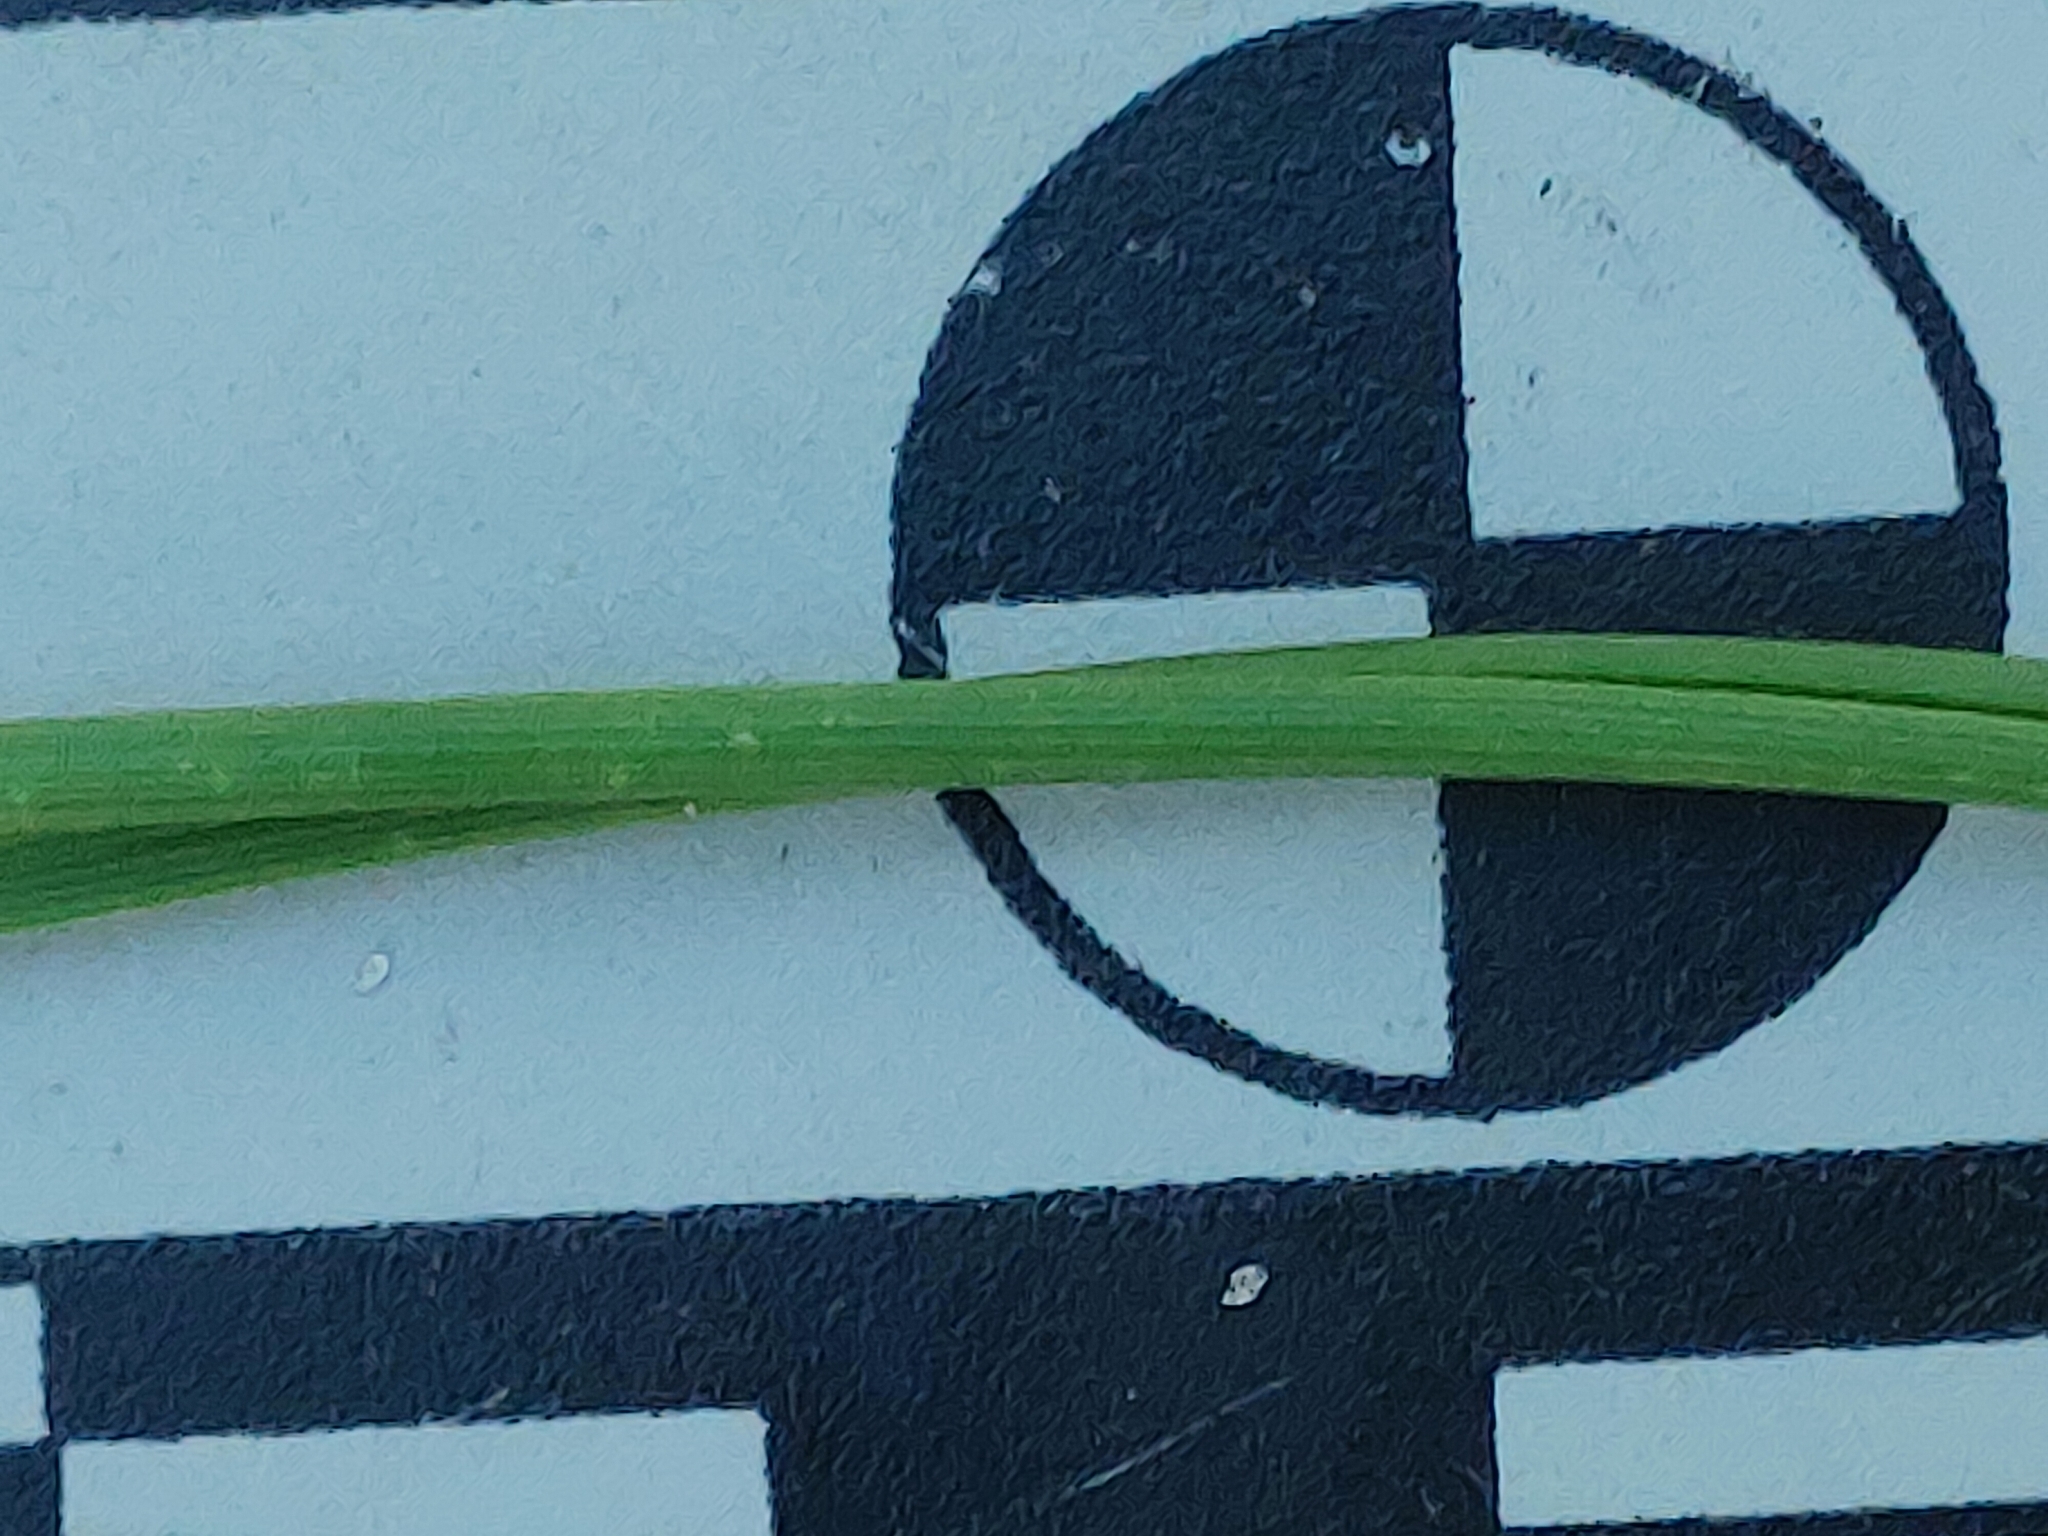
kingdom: Plantae
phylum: Tracheophyta
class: Pinopsida
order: Pinales
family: Pinaceae
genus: Pinus
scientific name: Pinus clausa
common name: Sand pine
